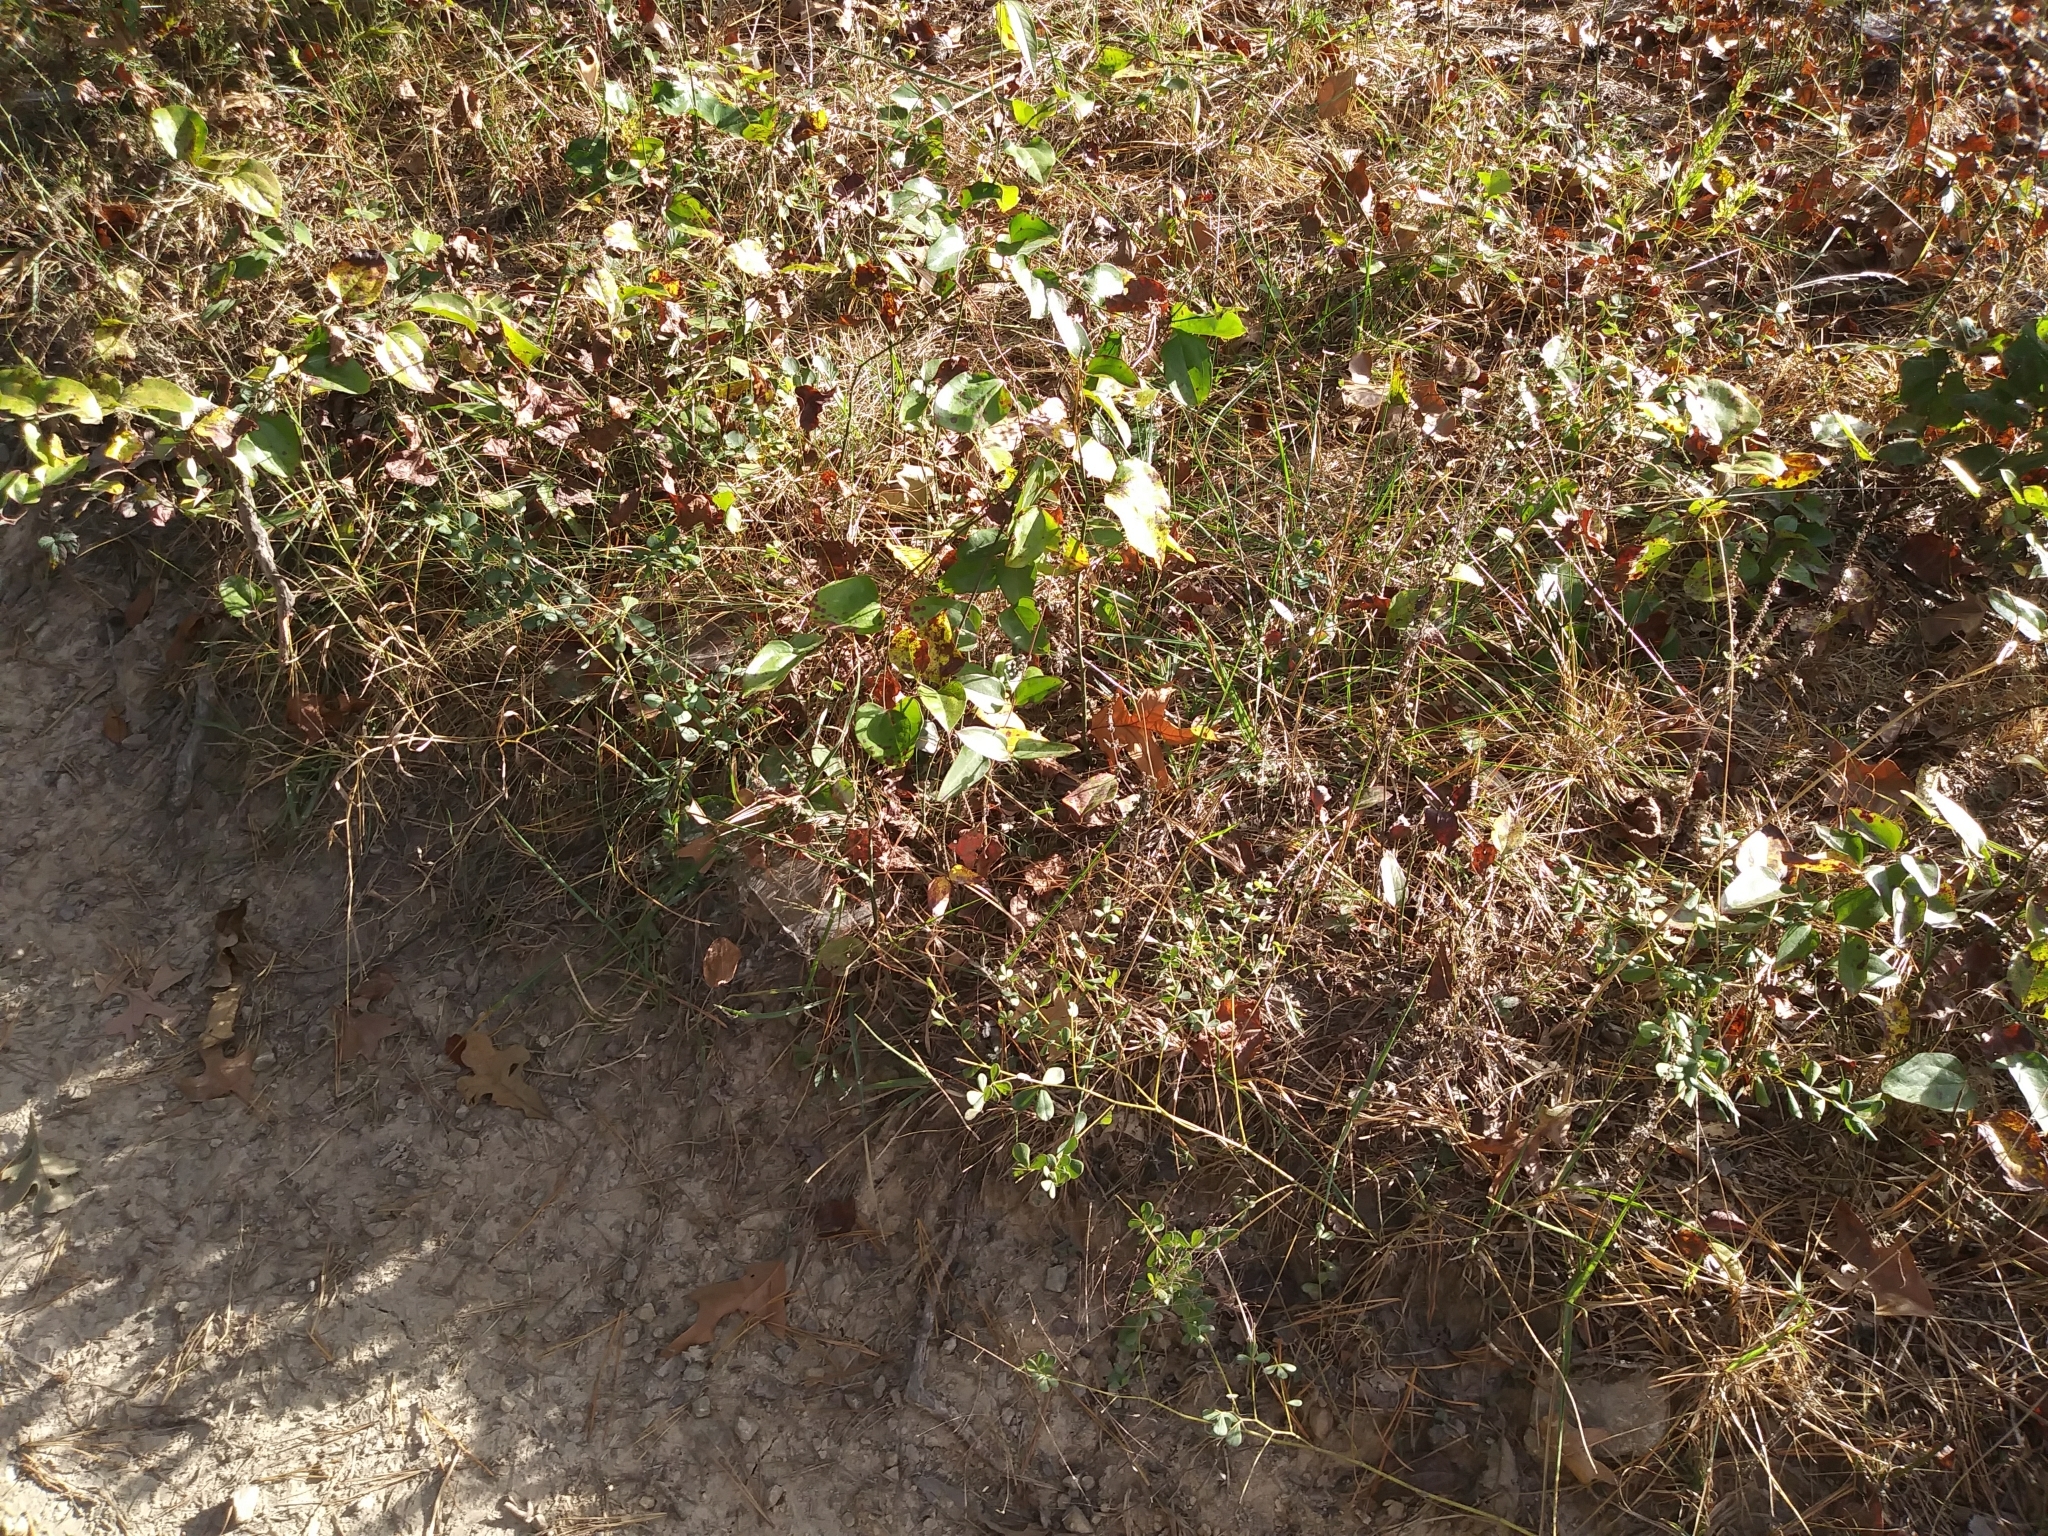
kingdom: Plantae
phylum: Tracheophyta
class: Magnoliopsida
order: Fabales
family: Fabaceae
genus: Baptisia
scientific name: Baptisia tinctoria
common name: Wild indigo
